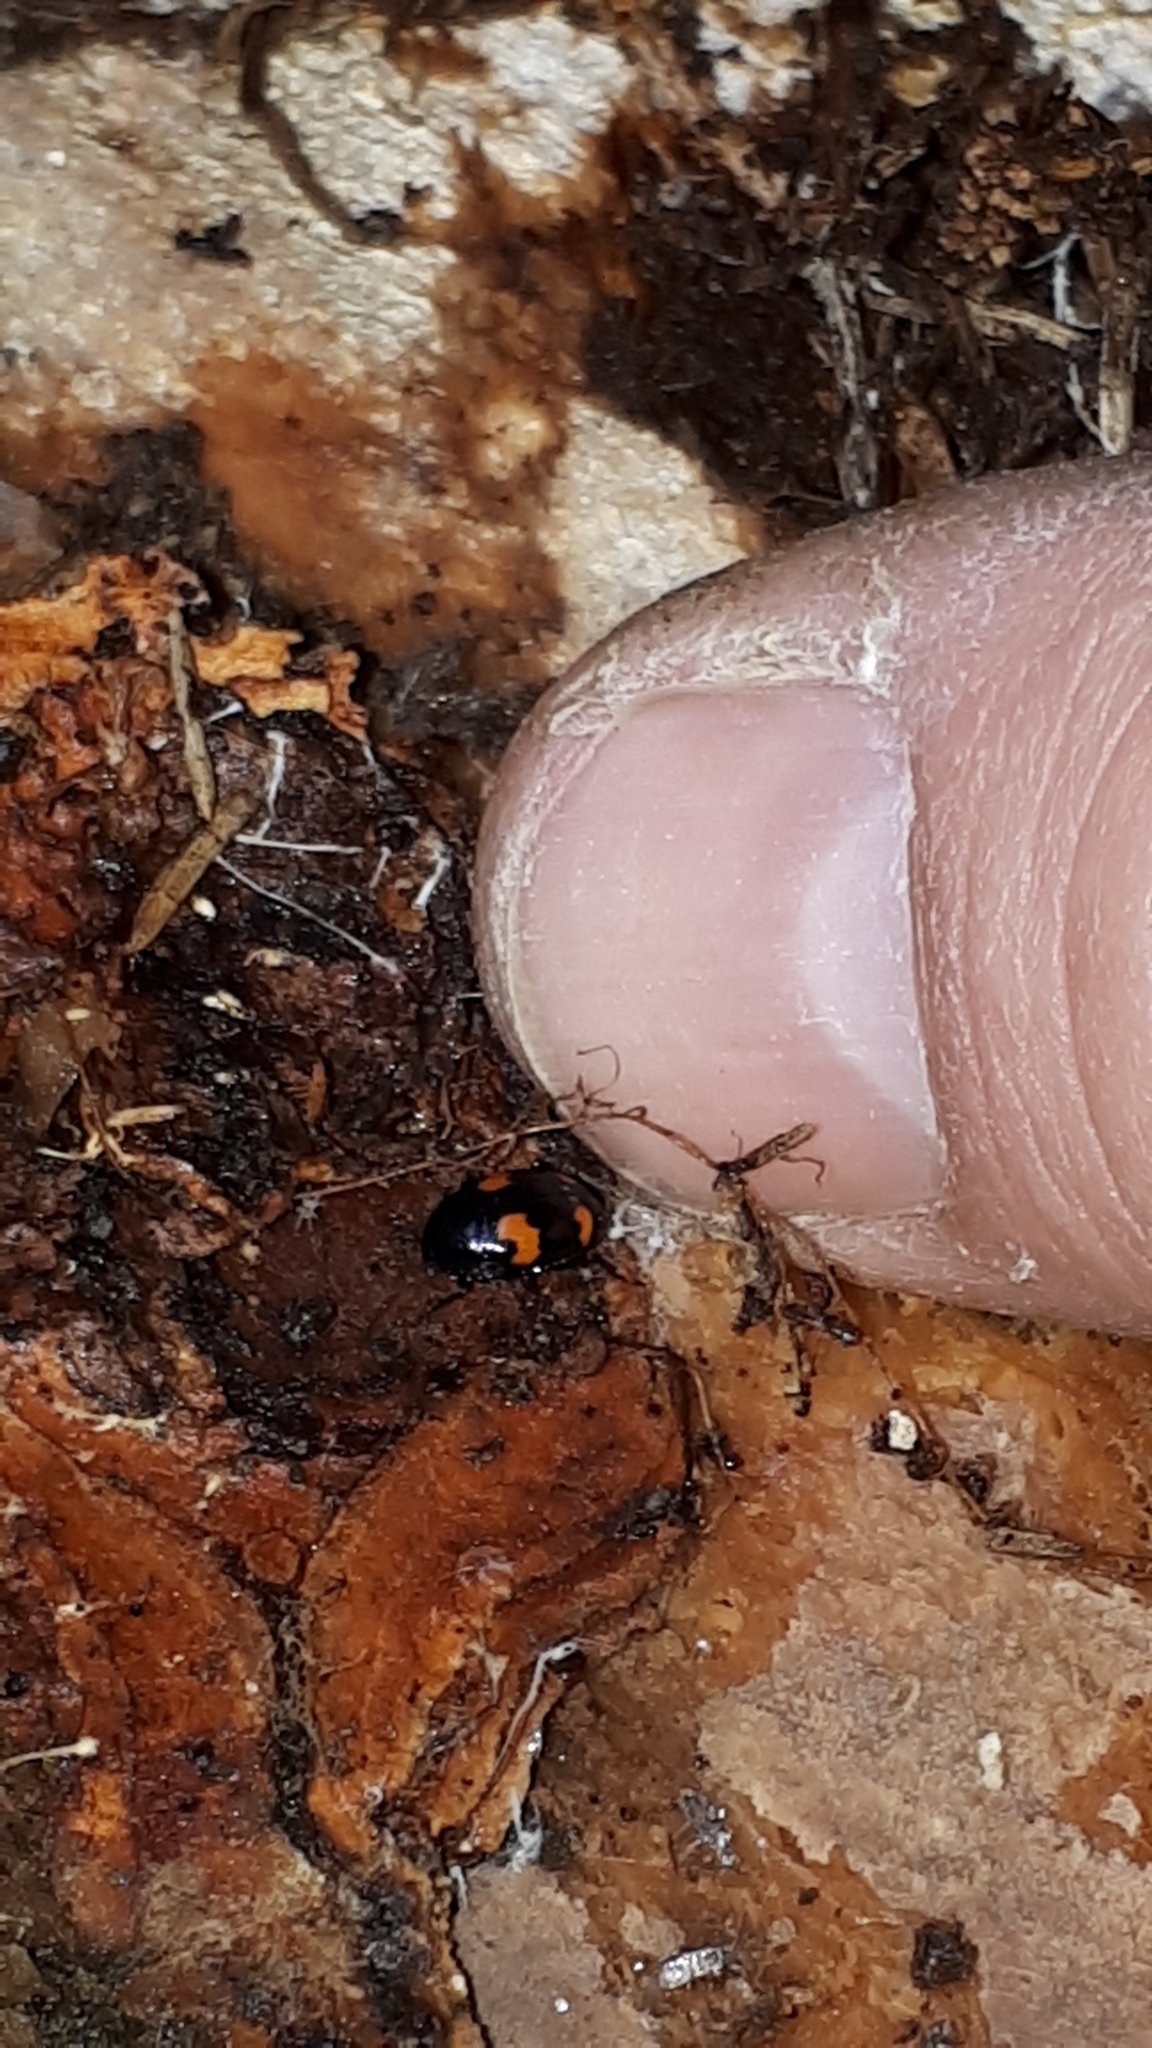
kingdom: Animalia
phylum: Arthropoda
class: Insecta
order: Coleoptera
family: Staphylinidae
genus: Scaphidium
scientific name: Scaphidium quadrimaculatum
